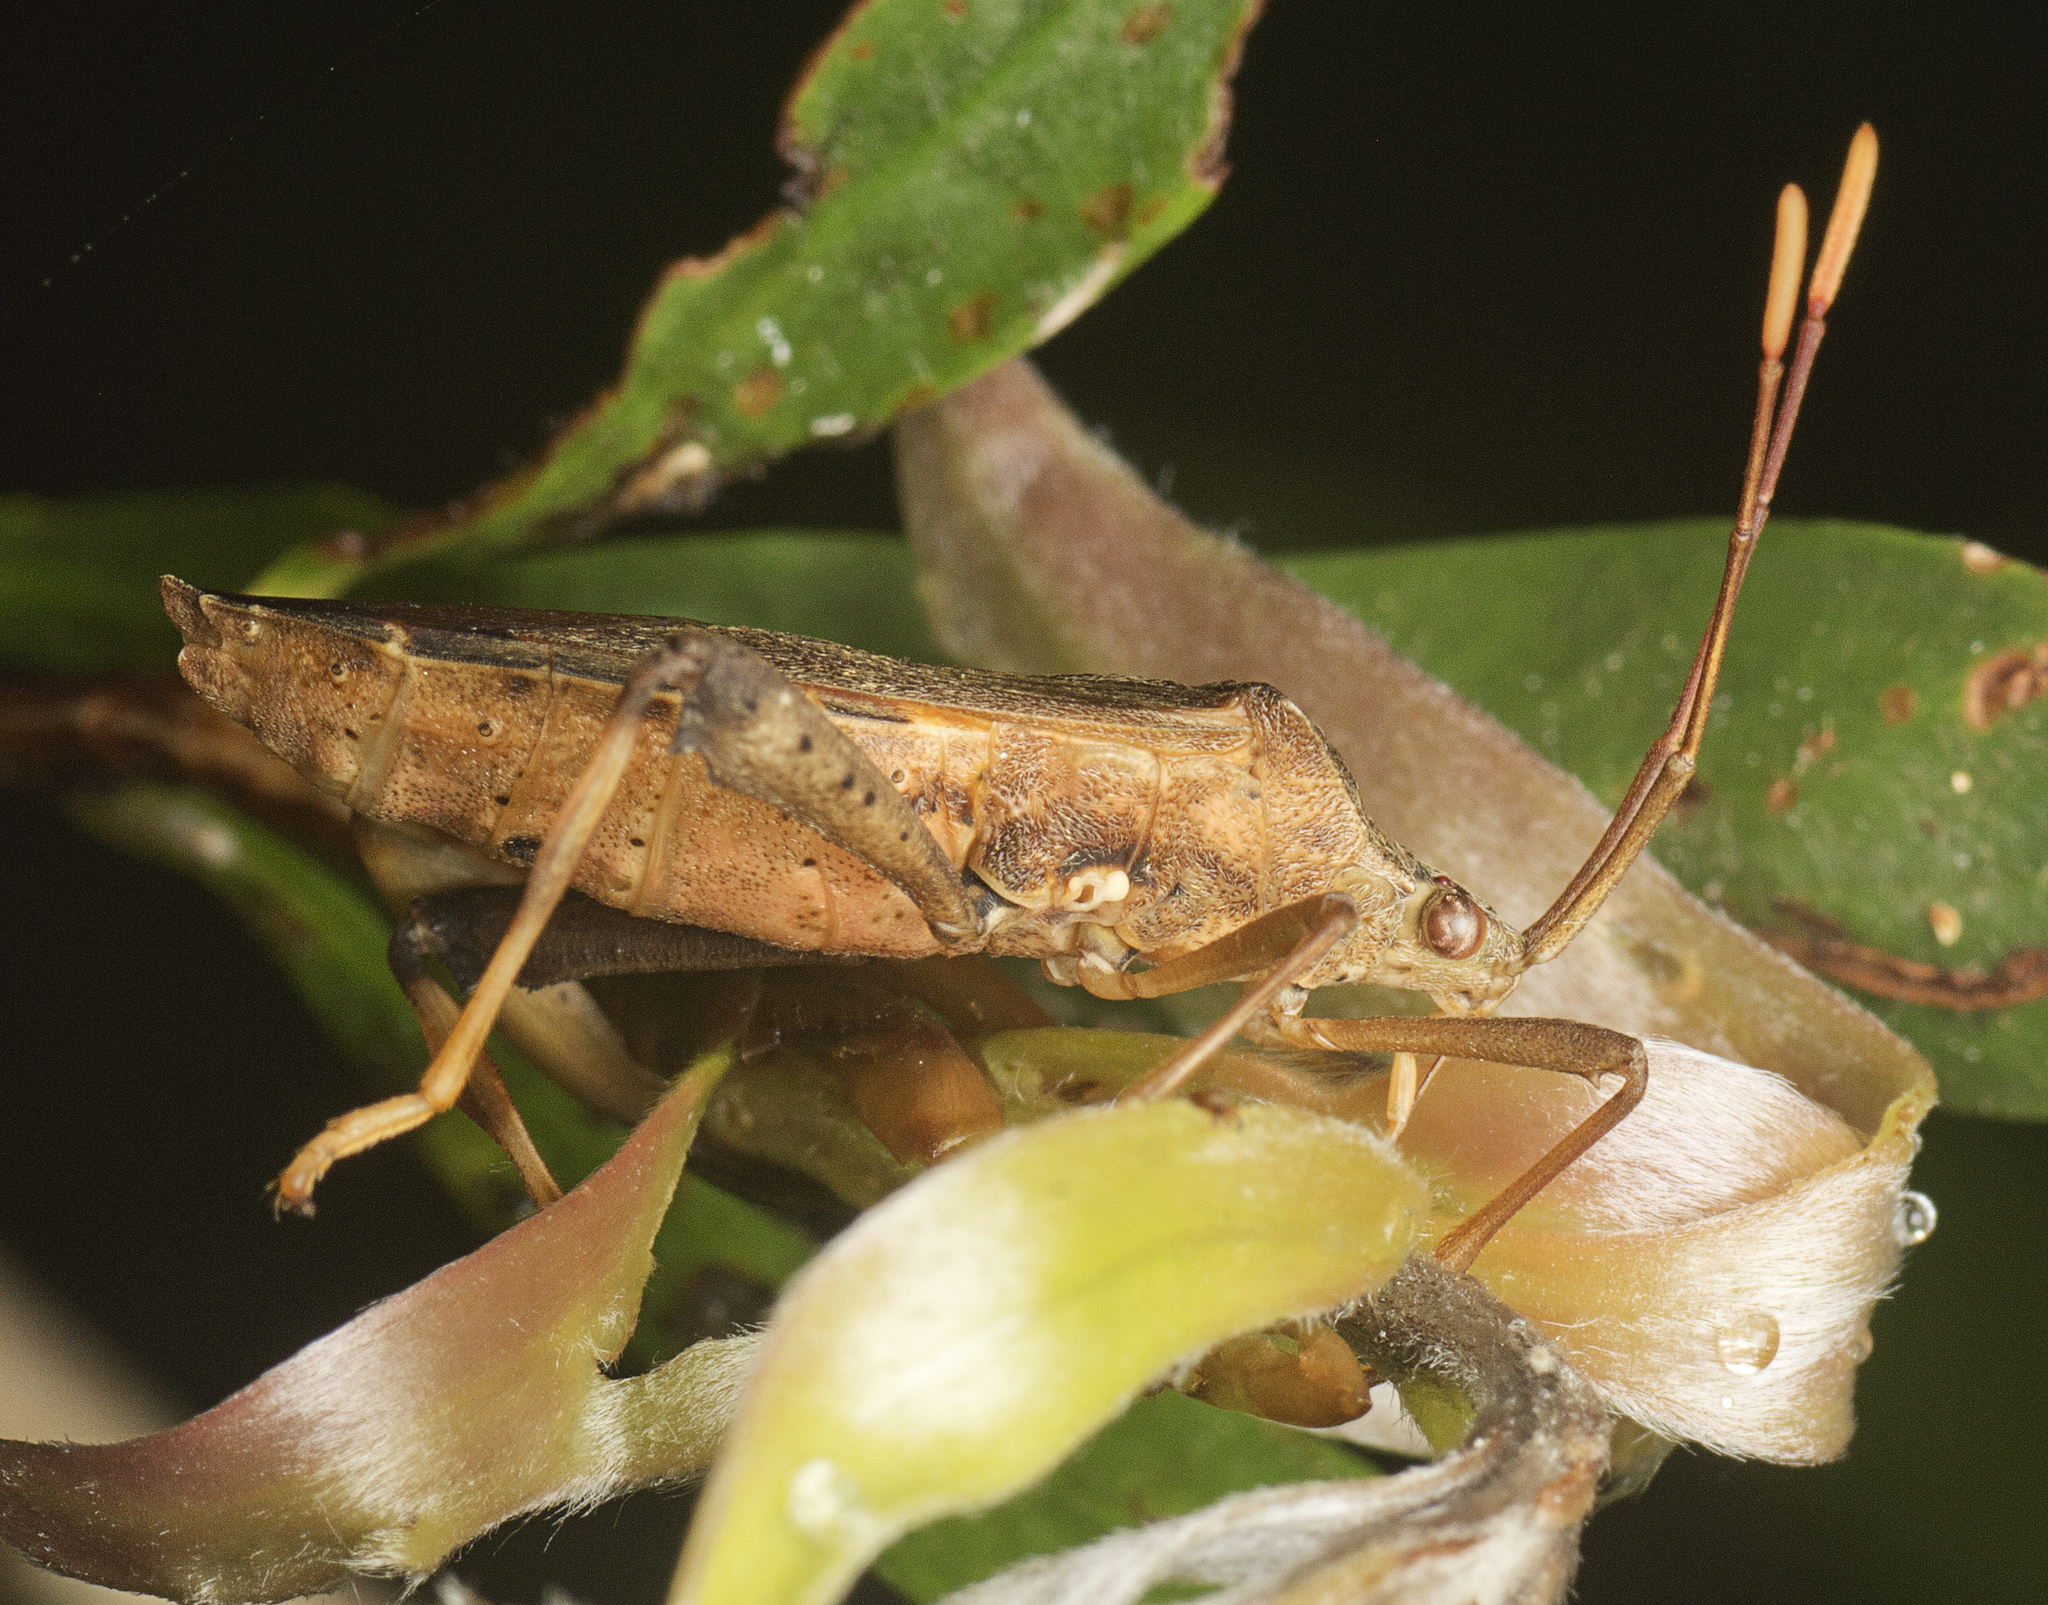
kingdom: Animalia
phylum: Arthropoda
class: Insecta
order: Hemiptera
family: Coreidae
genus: Tambourina
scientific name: Tambourina kelsalli
